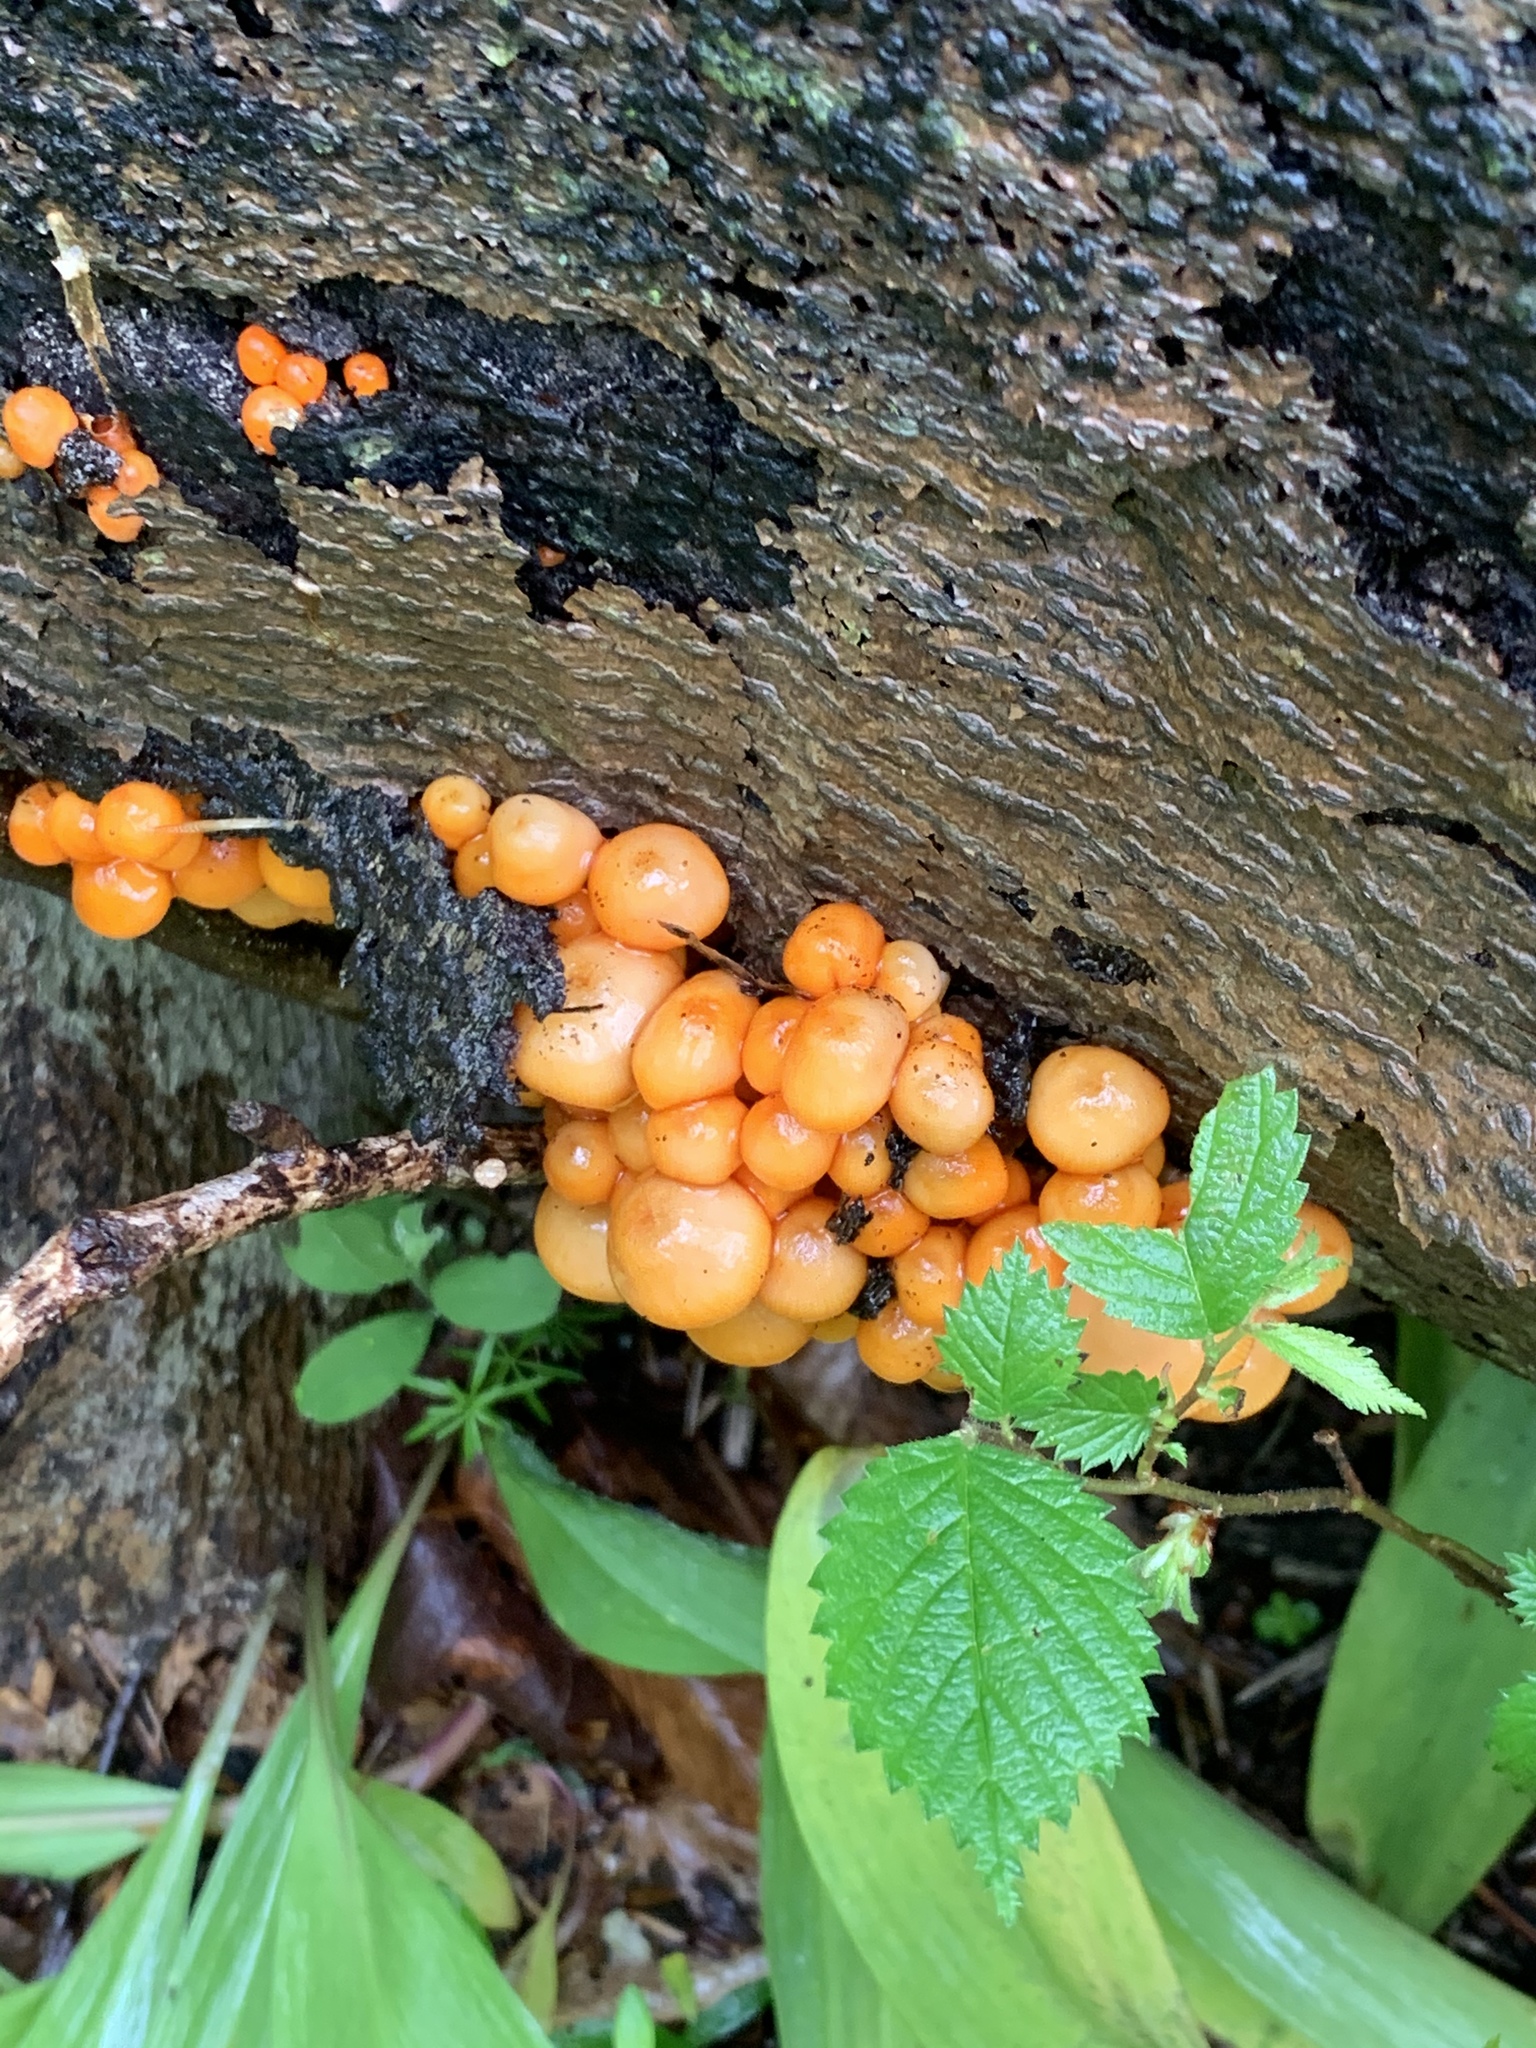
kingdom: Fungi
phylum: Basidiomycota
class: Agaricomycetes
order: Agaricales
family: Mycenaceae
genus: Mycena
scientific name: Mycena leaiana
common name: Orange mycena
